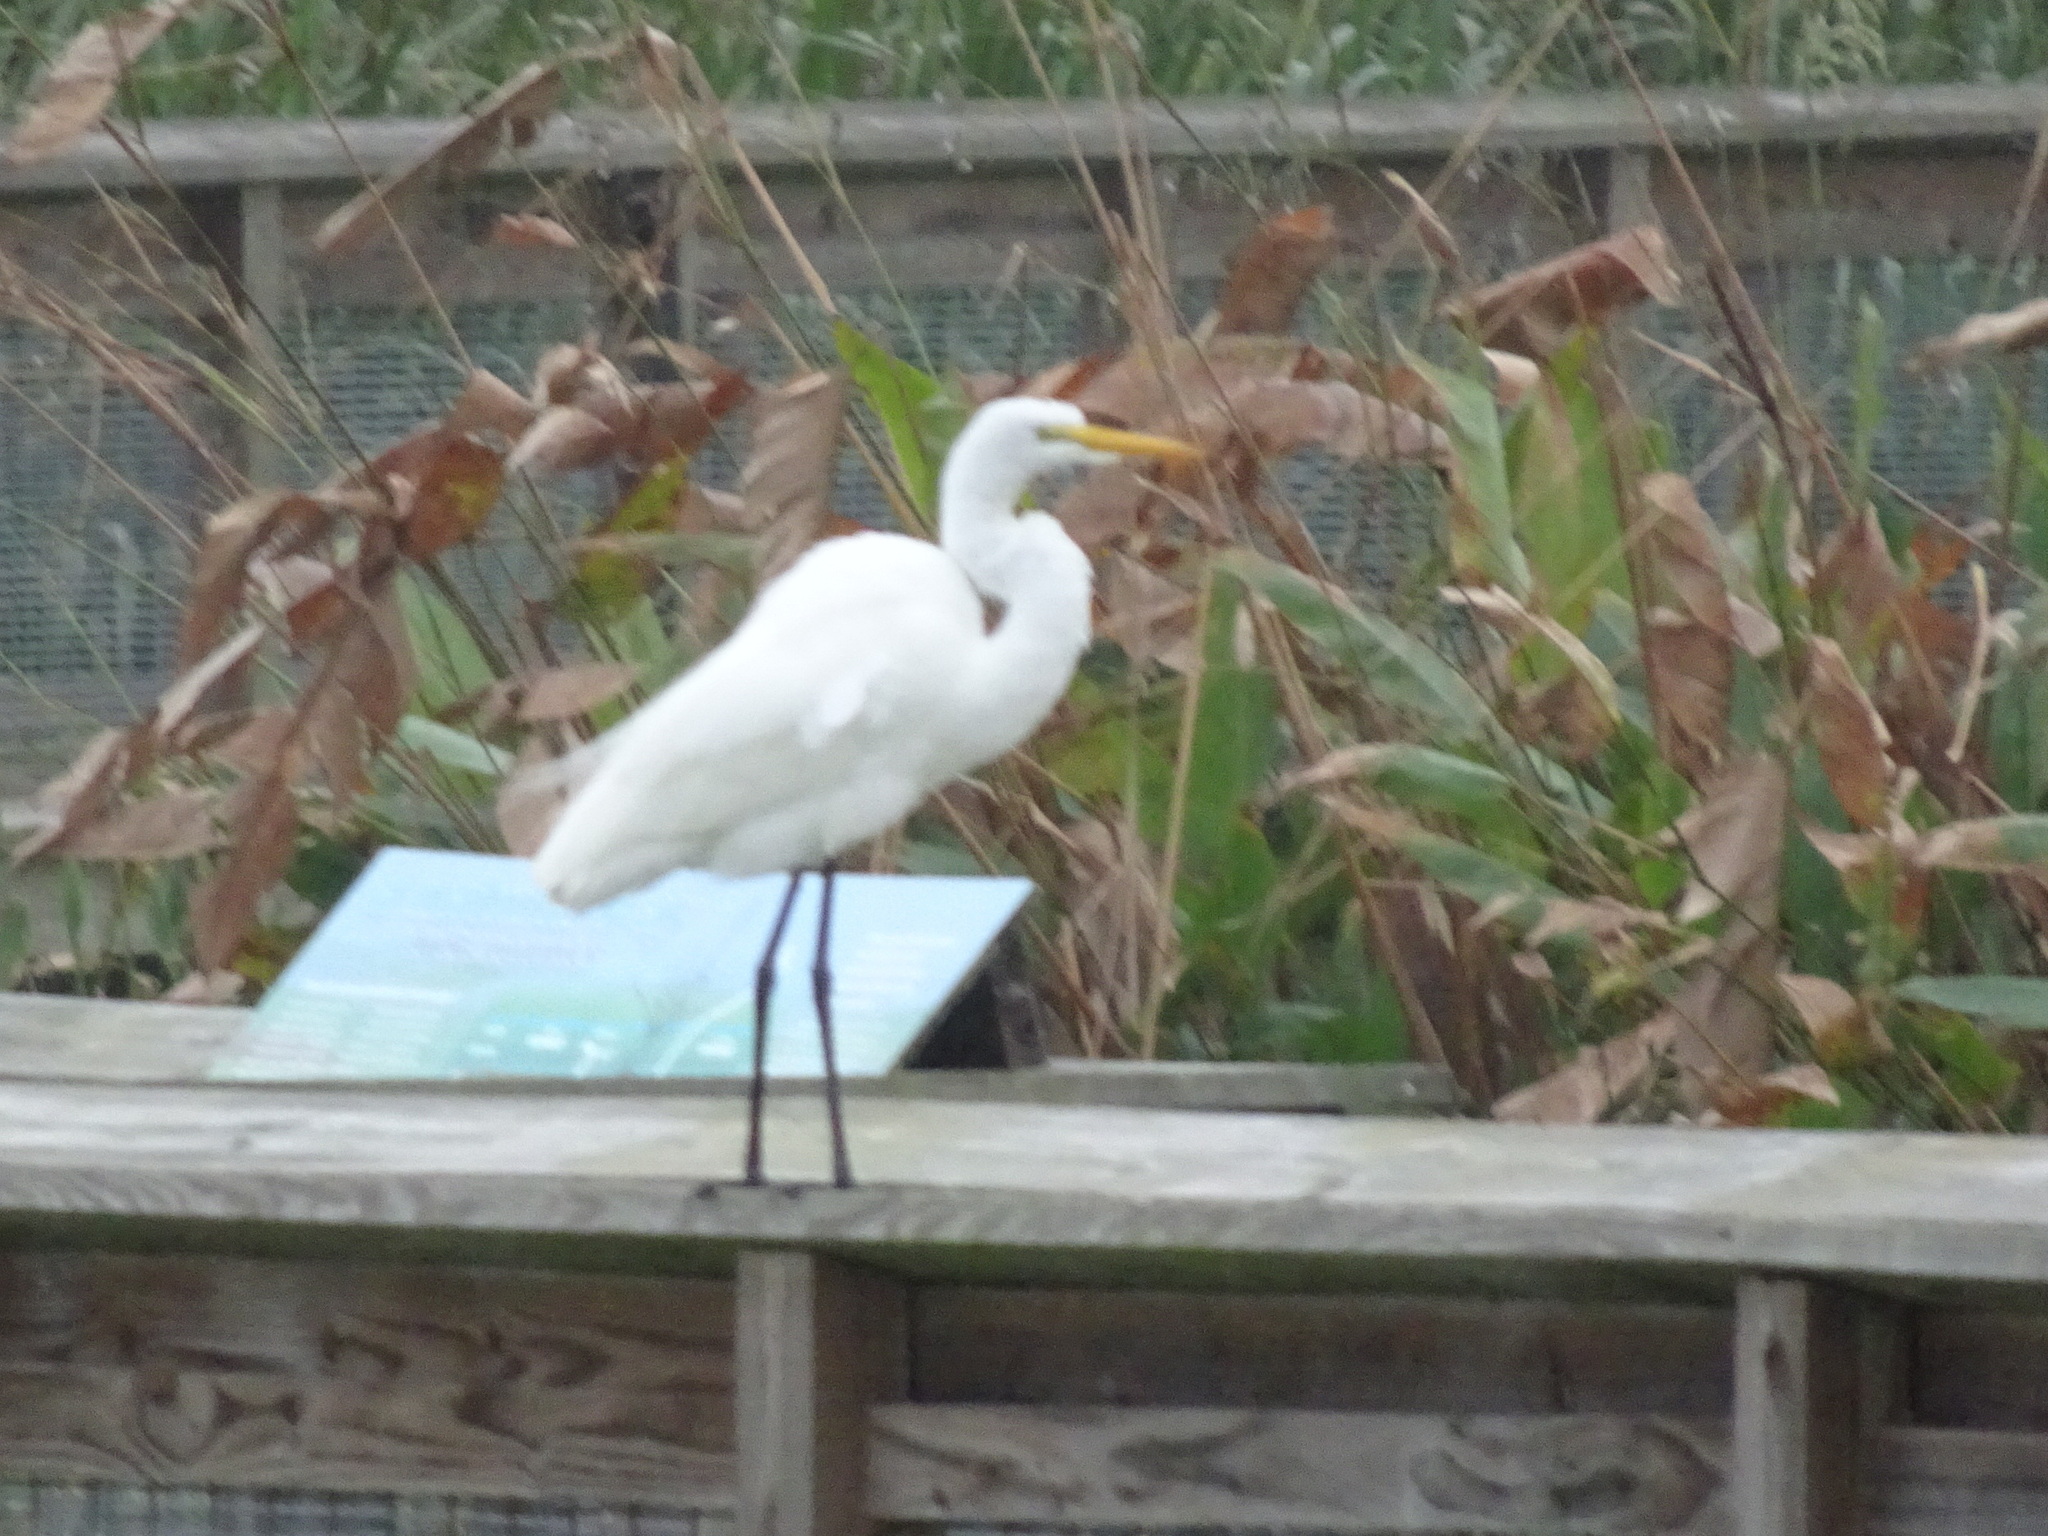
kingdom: Animalia
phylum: Chordata
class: Aves
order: Pelecaniformes
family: Ardeidae
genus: Ardea
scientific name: Ardea alba
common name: Great egret
